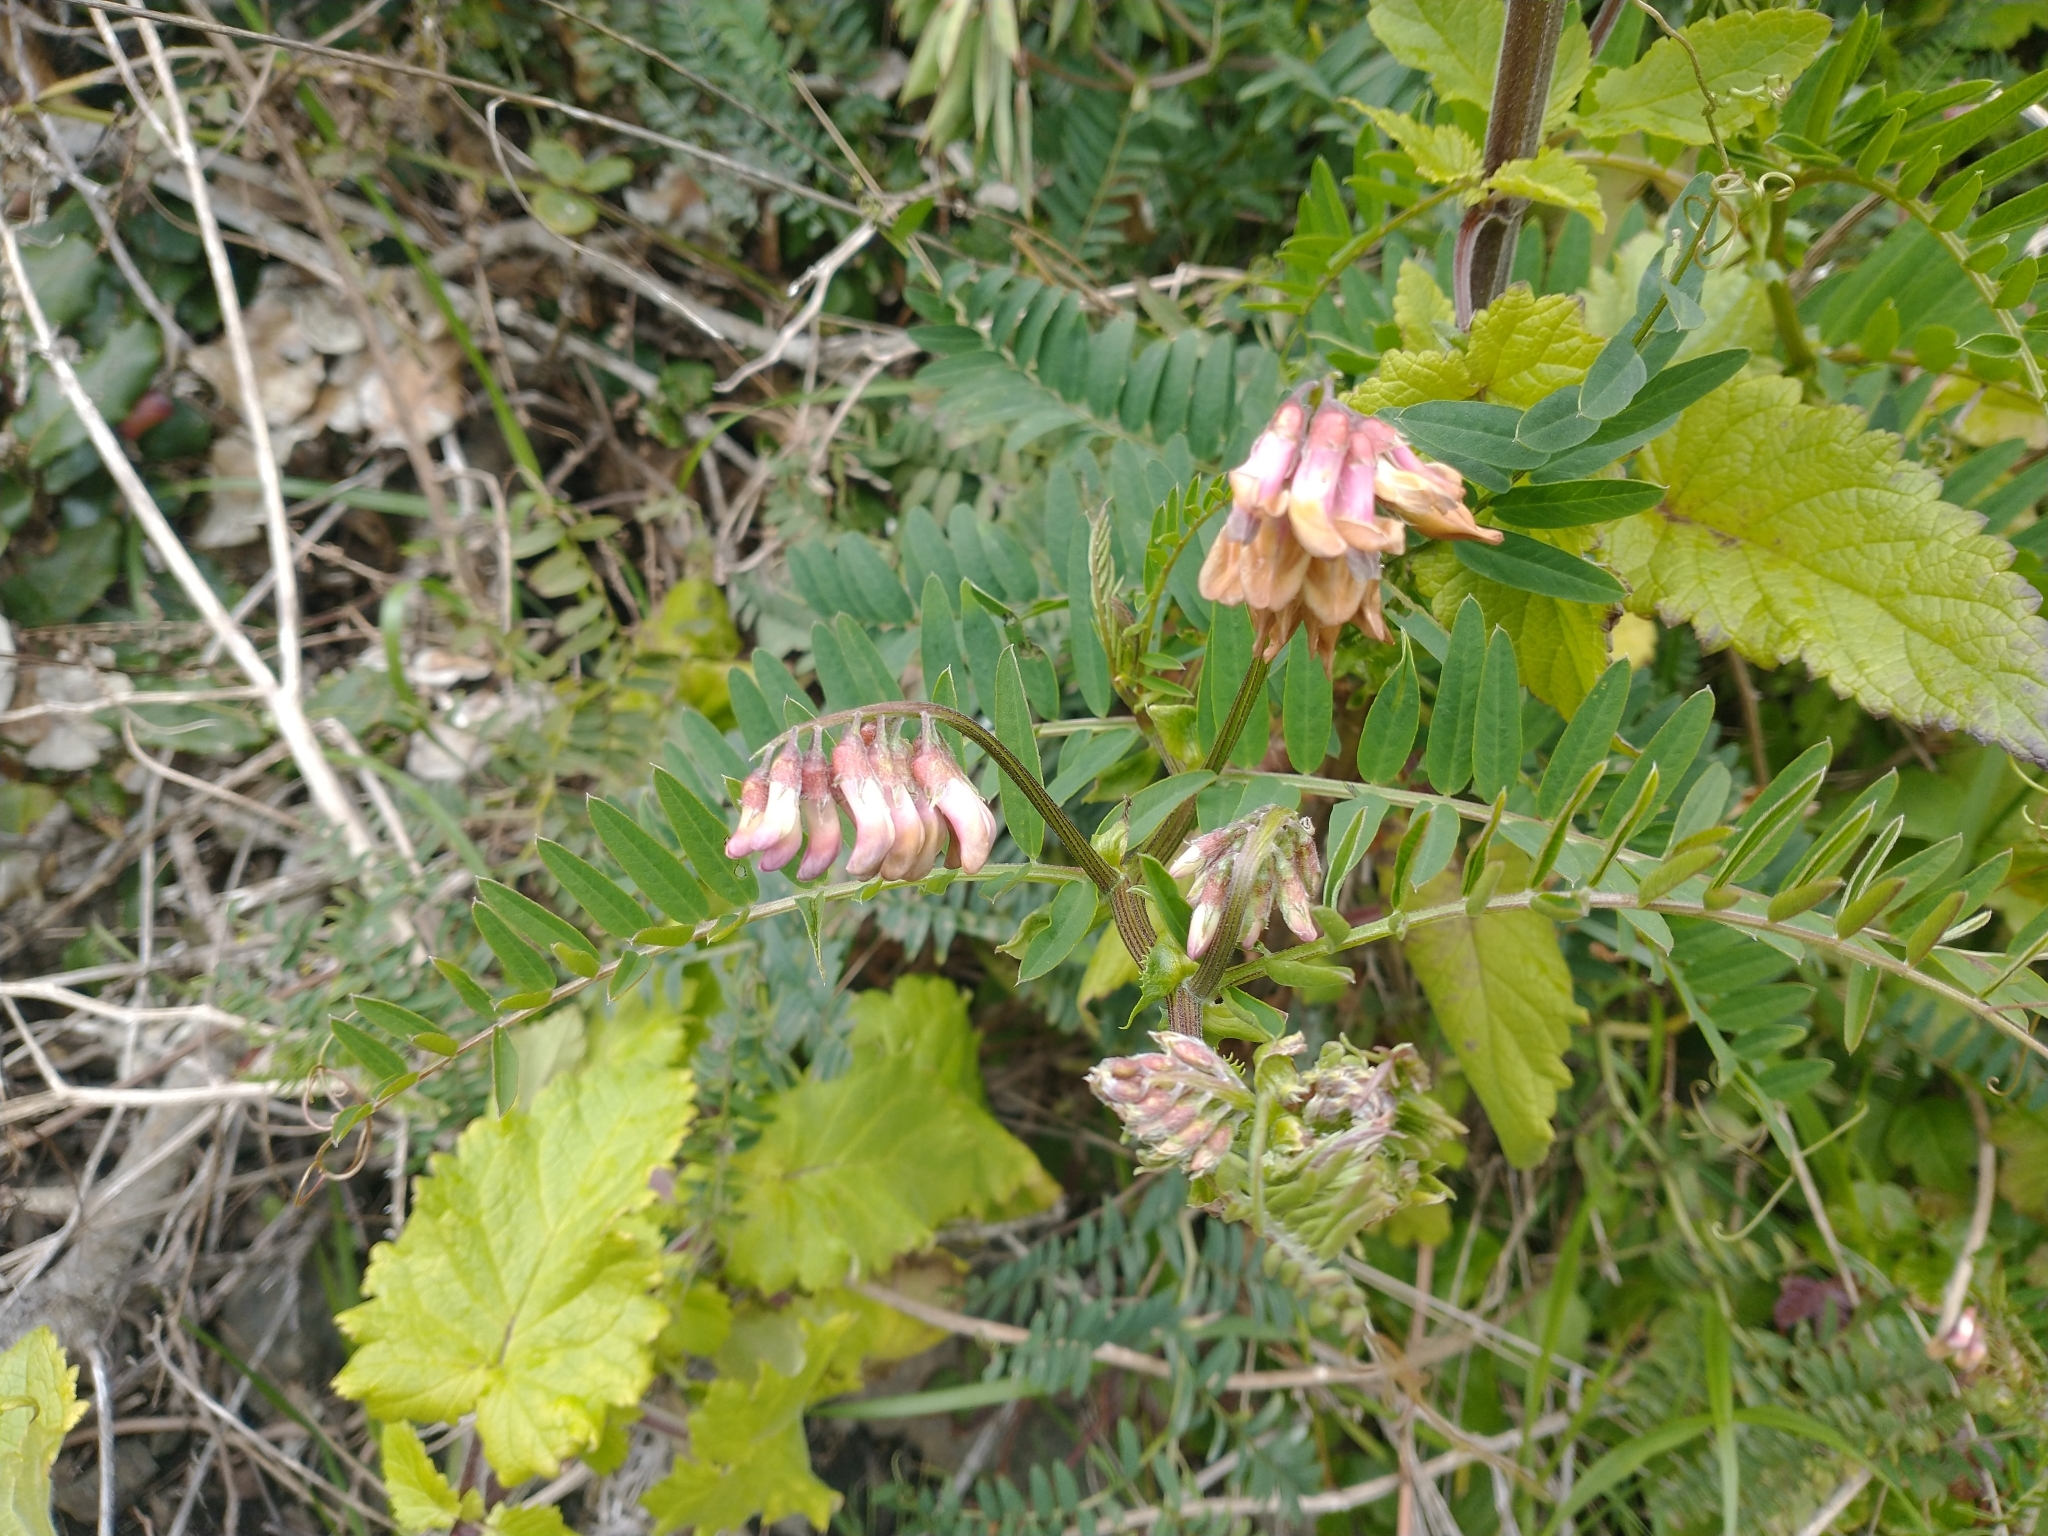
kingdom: Plantae
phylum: Tracheophyta
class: Magnoliopsida
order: Fabales
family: Fabaceae
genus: Vicia
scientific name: Vicia
